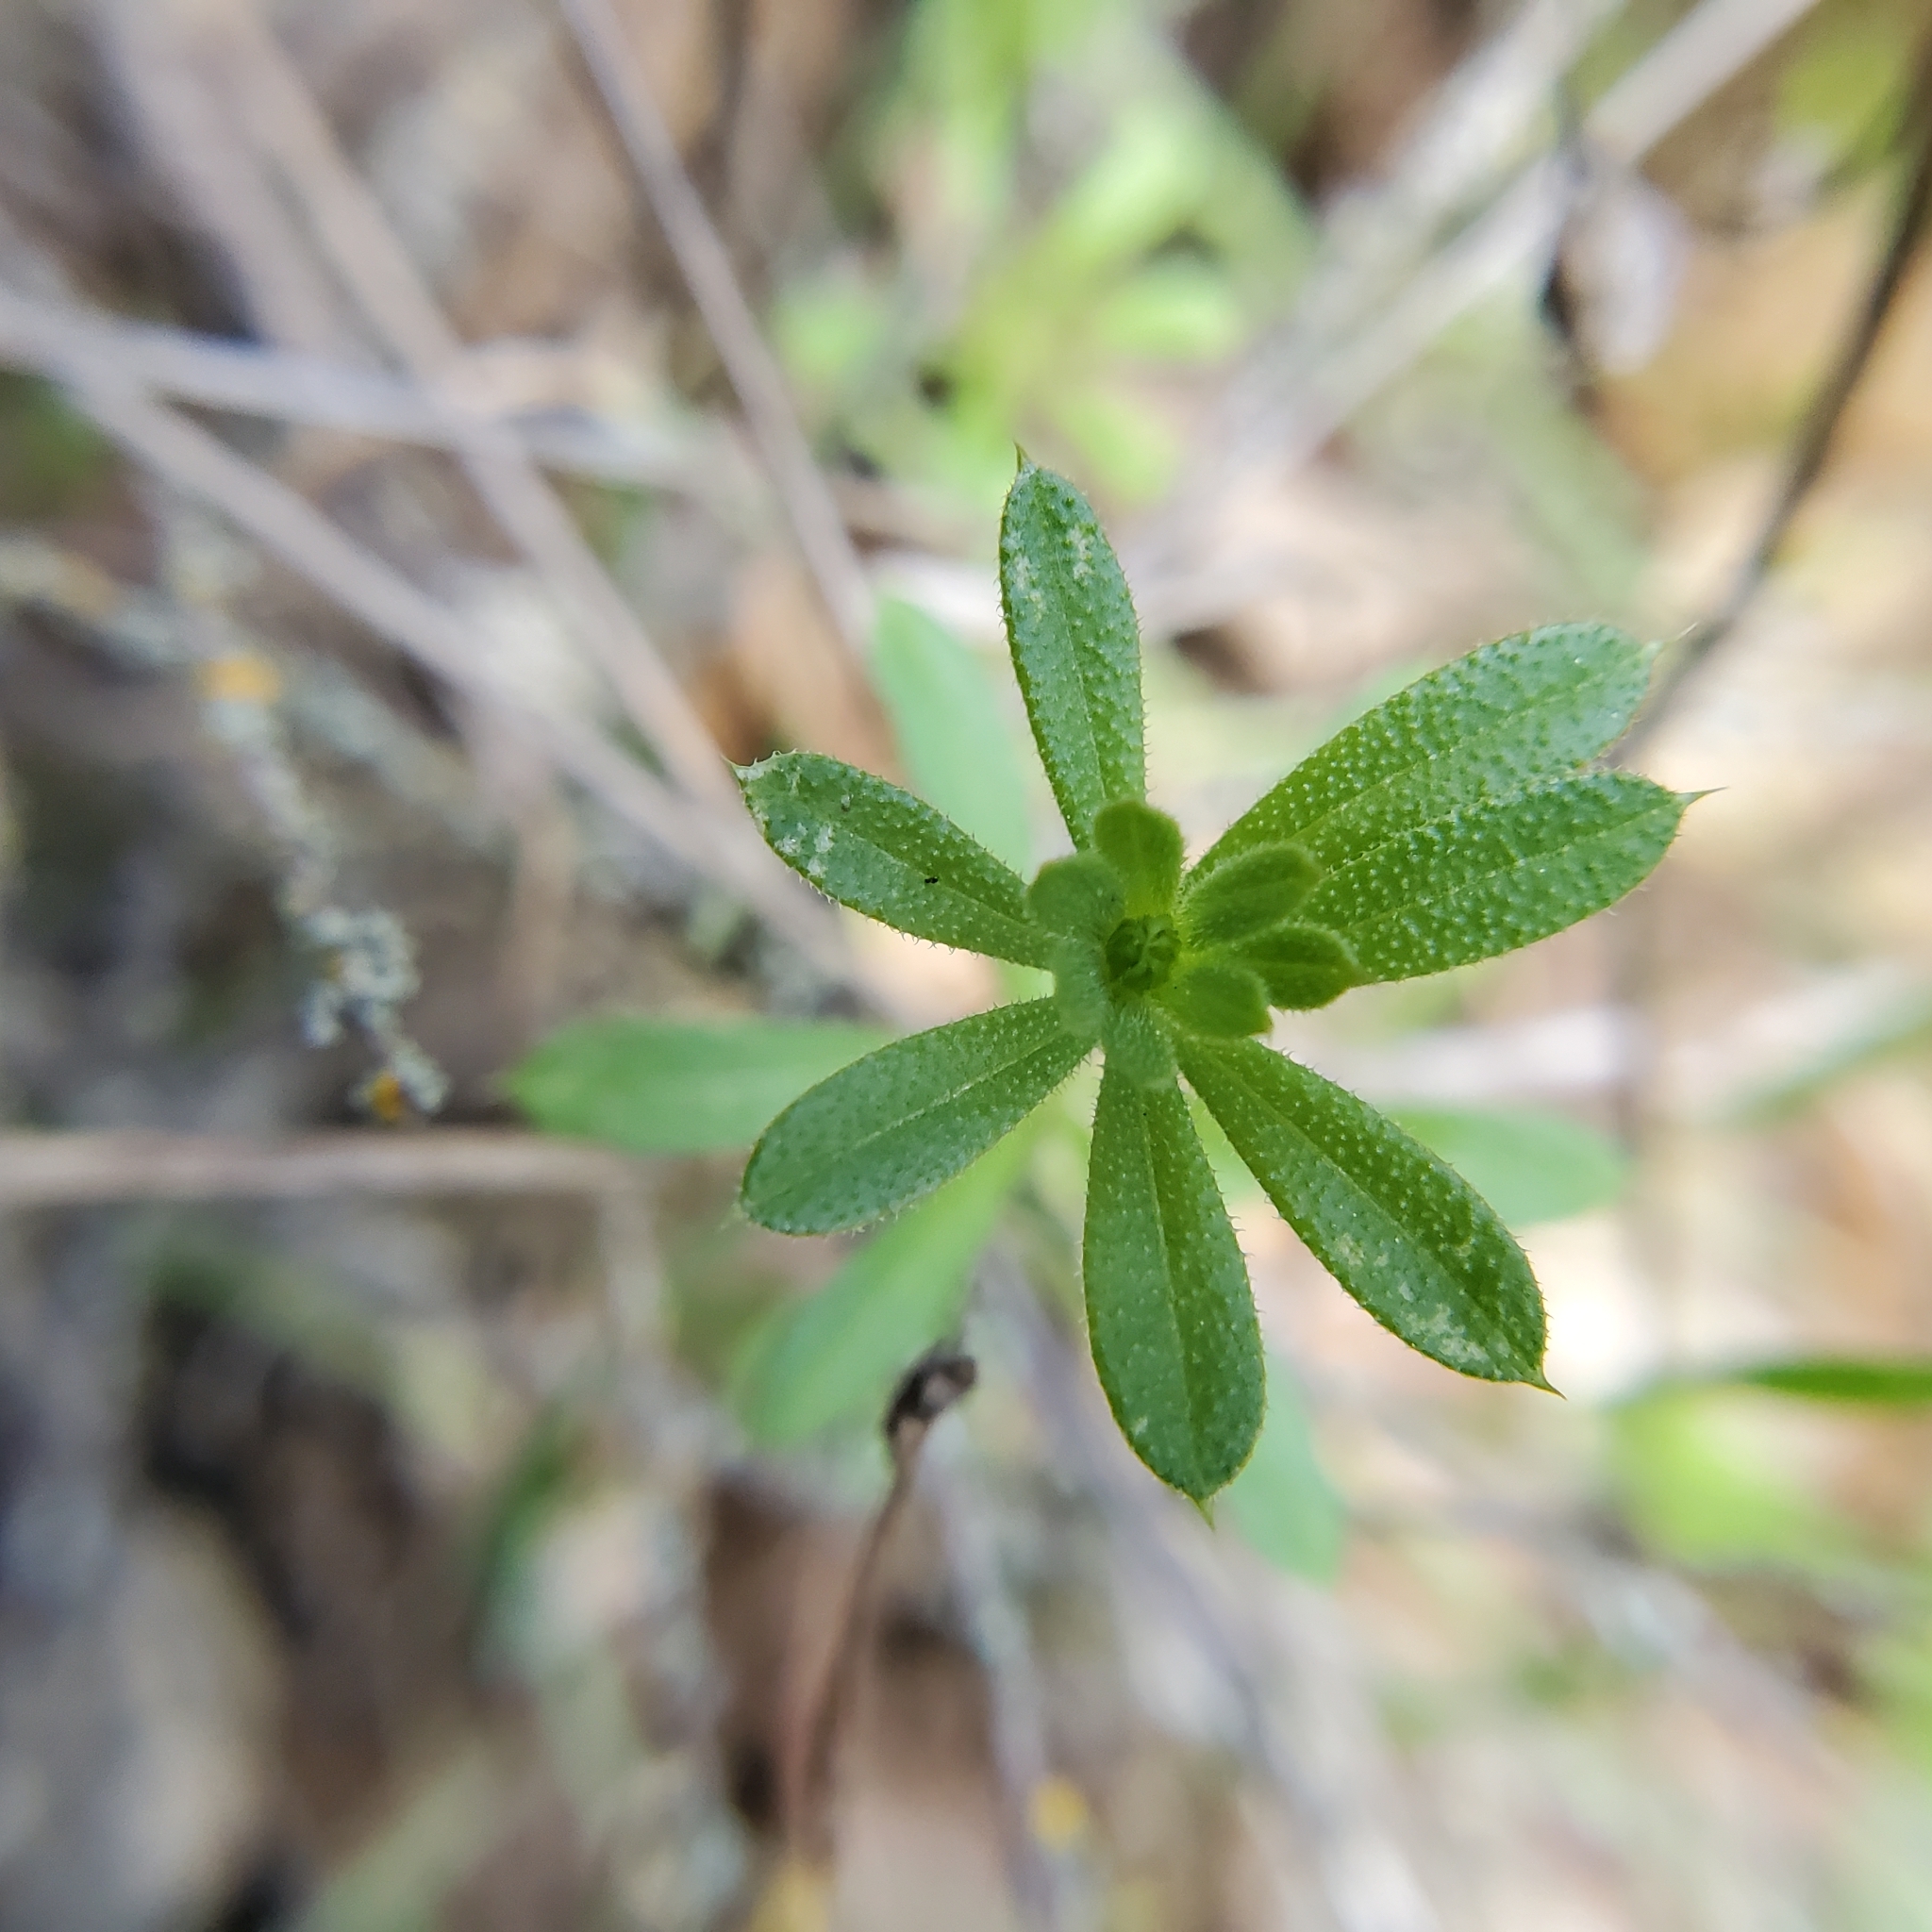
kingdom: Plantae
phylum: Tracheophyta
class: Magnoliopsida
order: Gentianales
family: Rubiaceae
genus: Galium
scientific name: Galium aparine
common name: Cleavers
